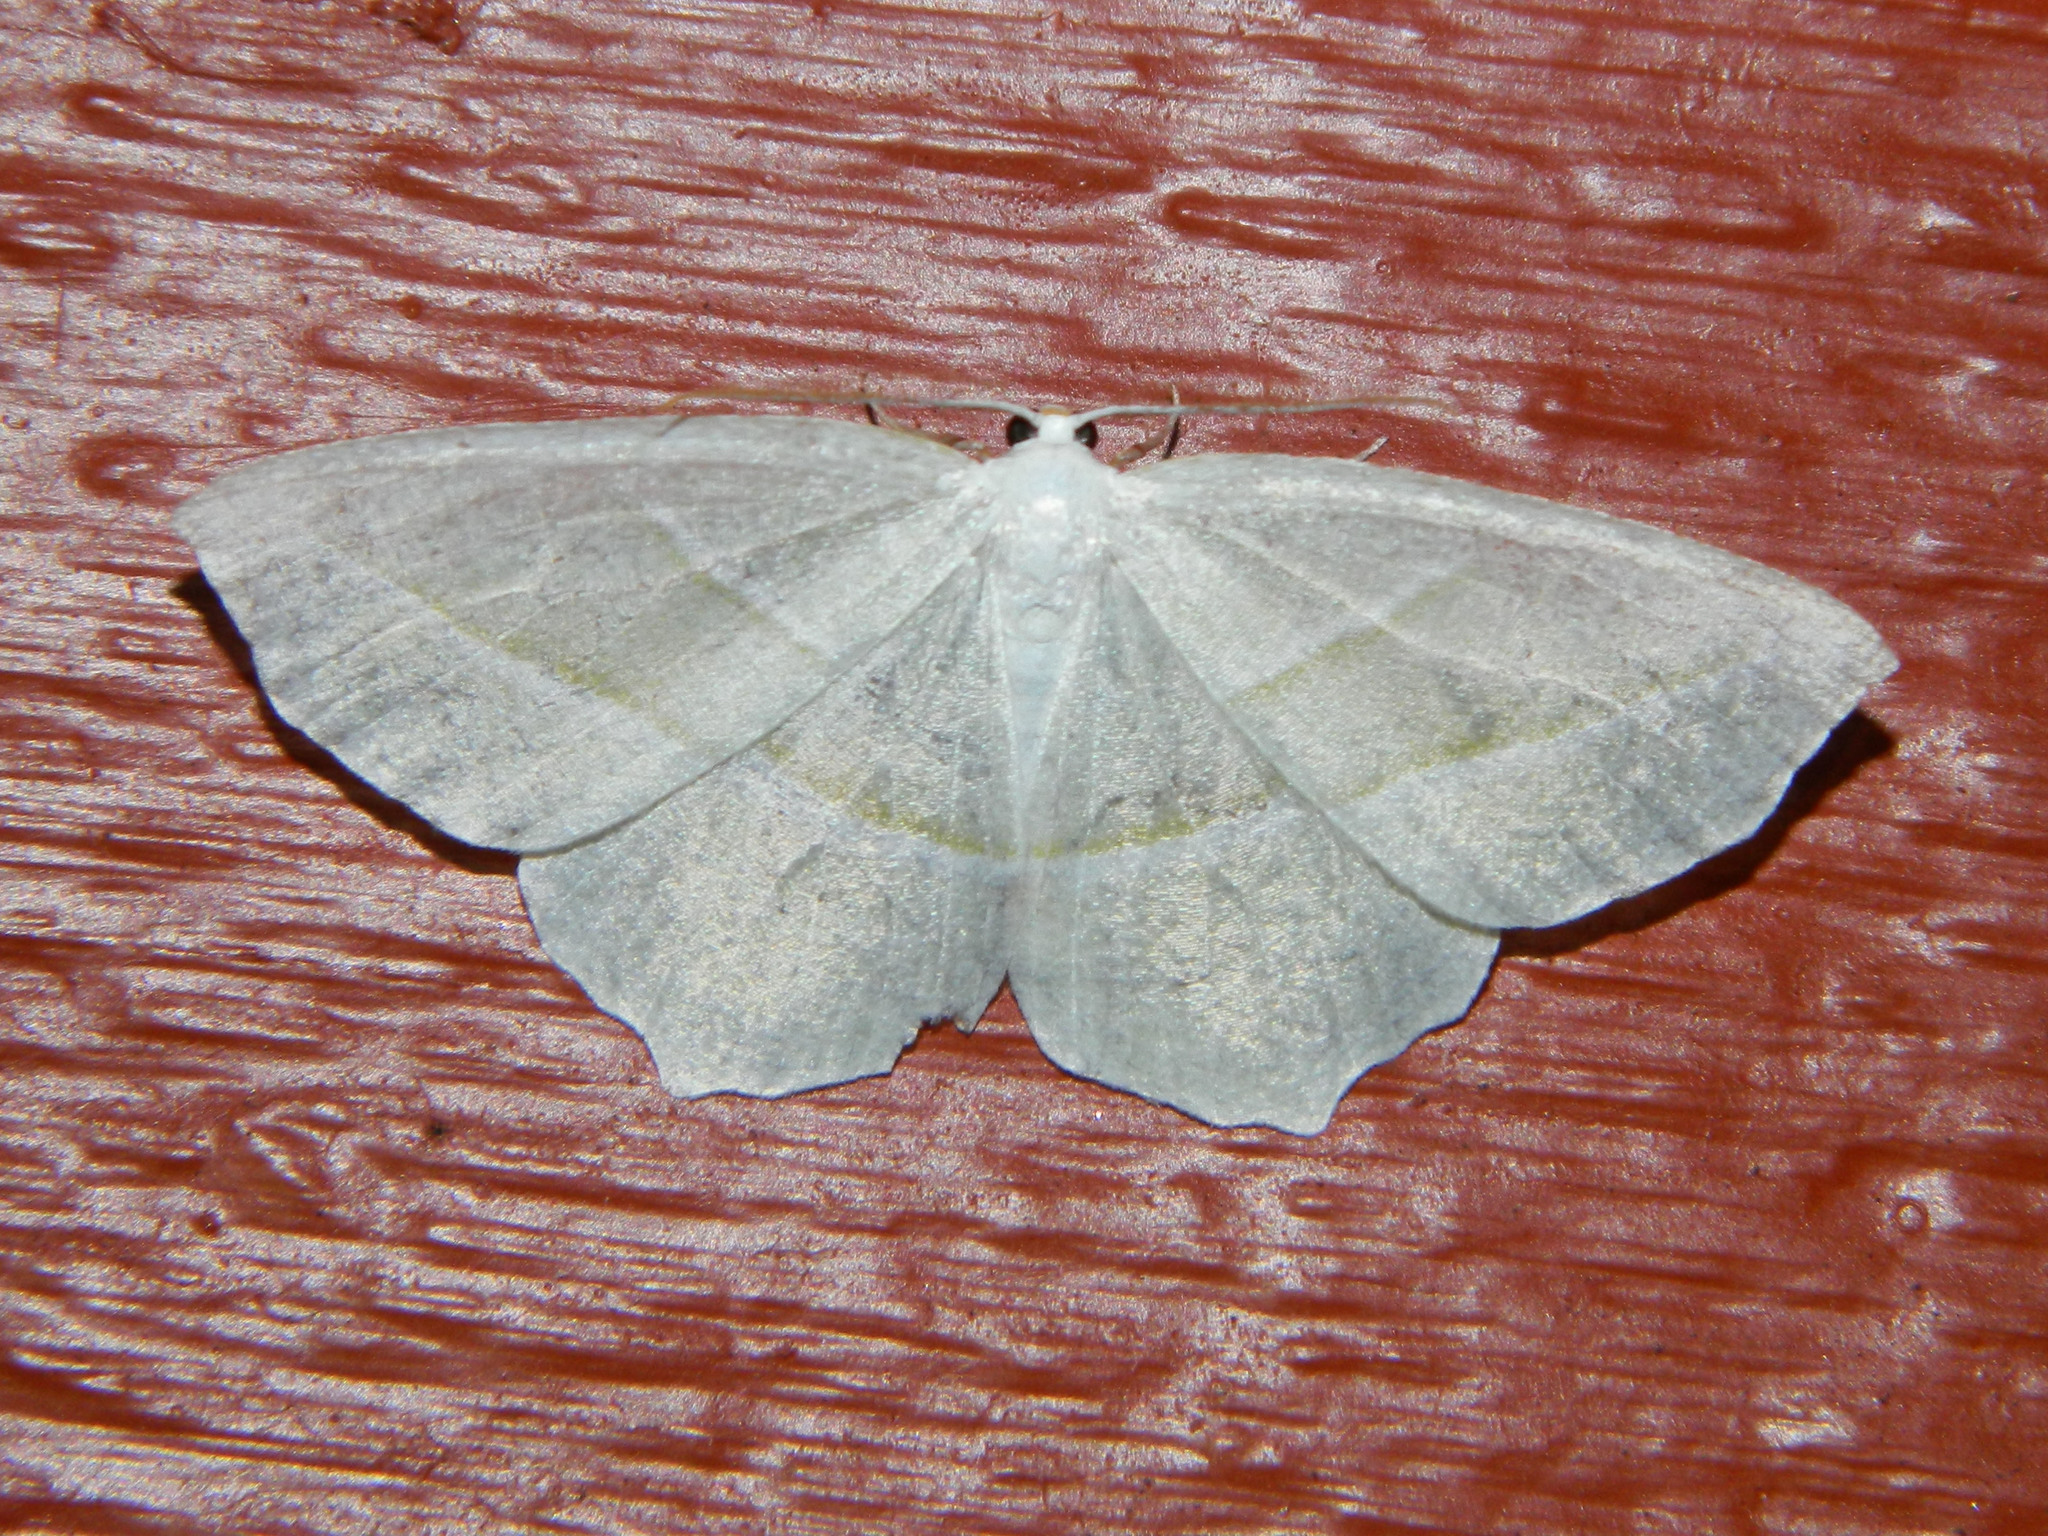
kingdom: Animalia
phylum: Arthropoda
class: Insecta
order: Lepidoptera
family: Geometridae
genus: Campaea
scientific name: Campaea perlata
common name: Fringed looper
